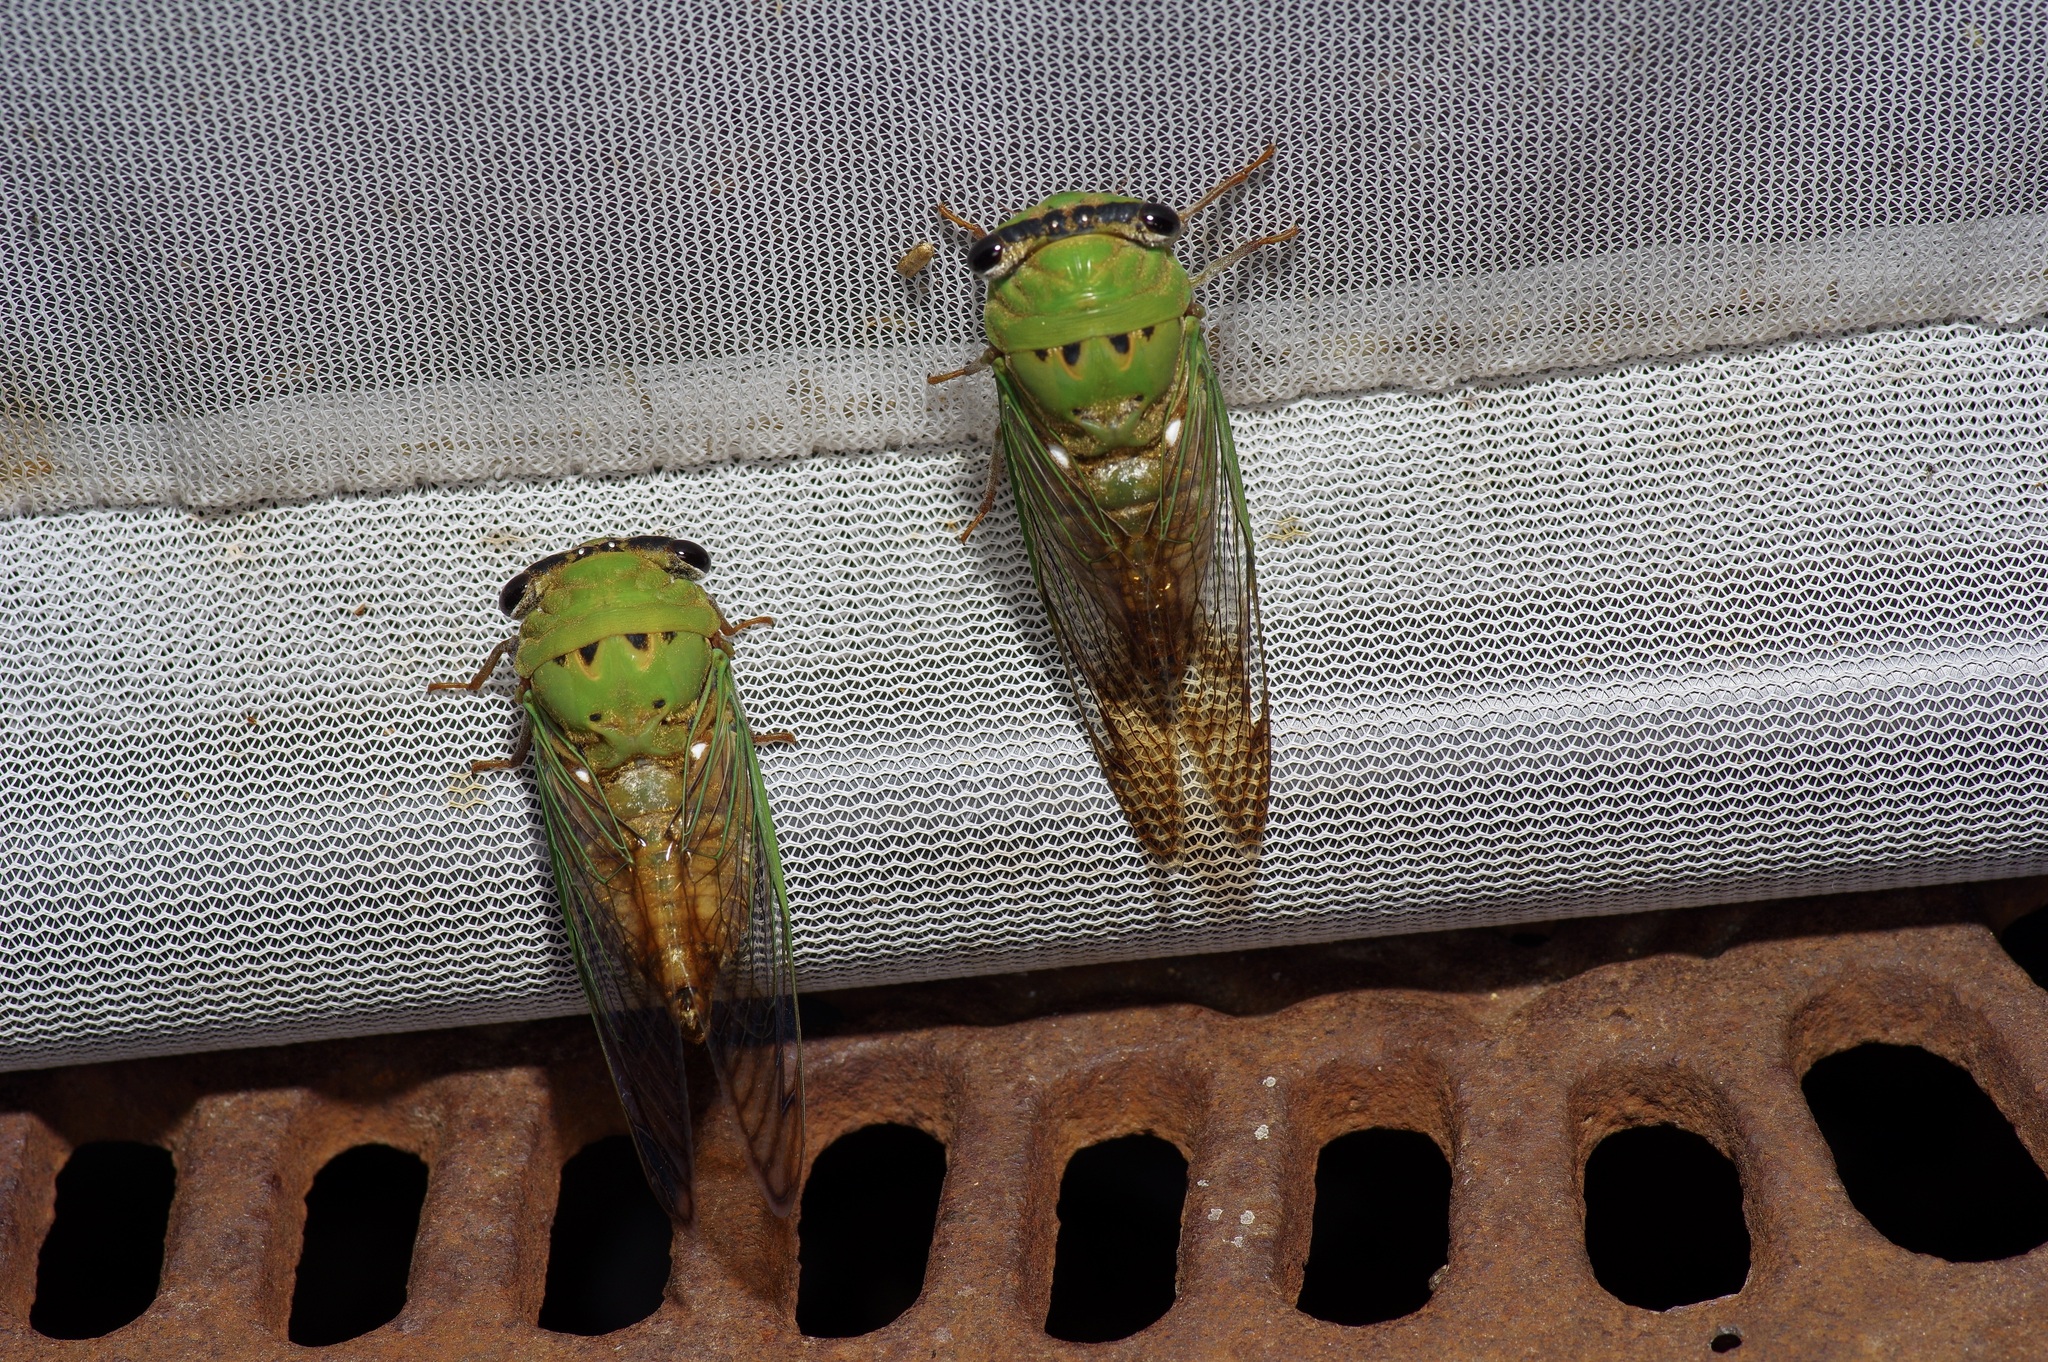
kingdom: Animalia
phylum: Arthropoda
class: Insecta
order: Hemiptera
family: Cicadidae
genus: Neotibicen
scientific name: Neotibicen superbus
